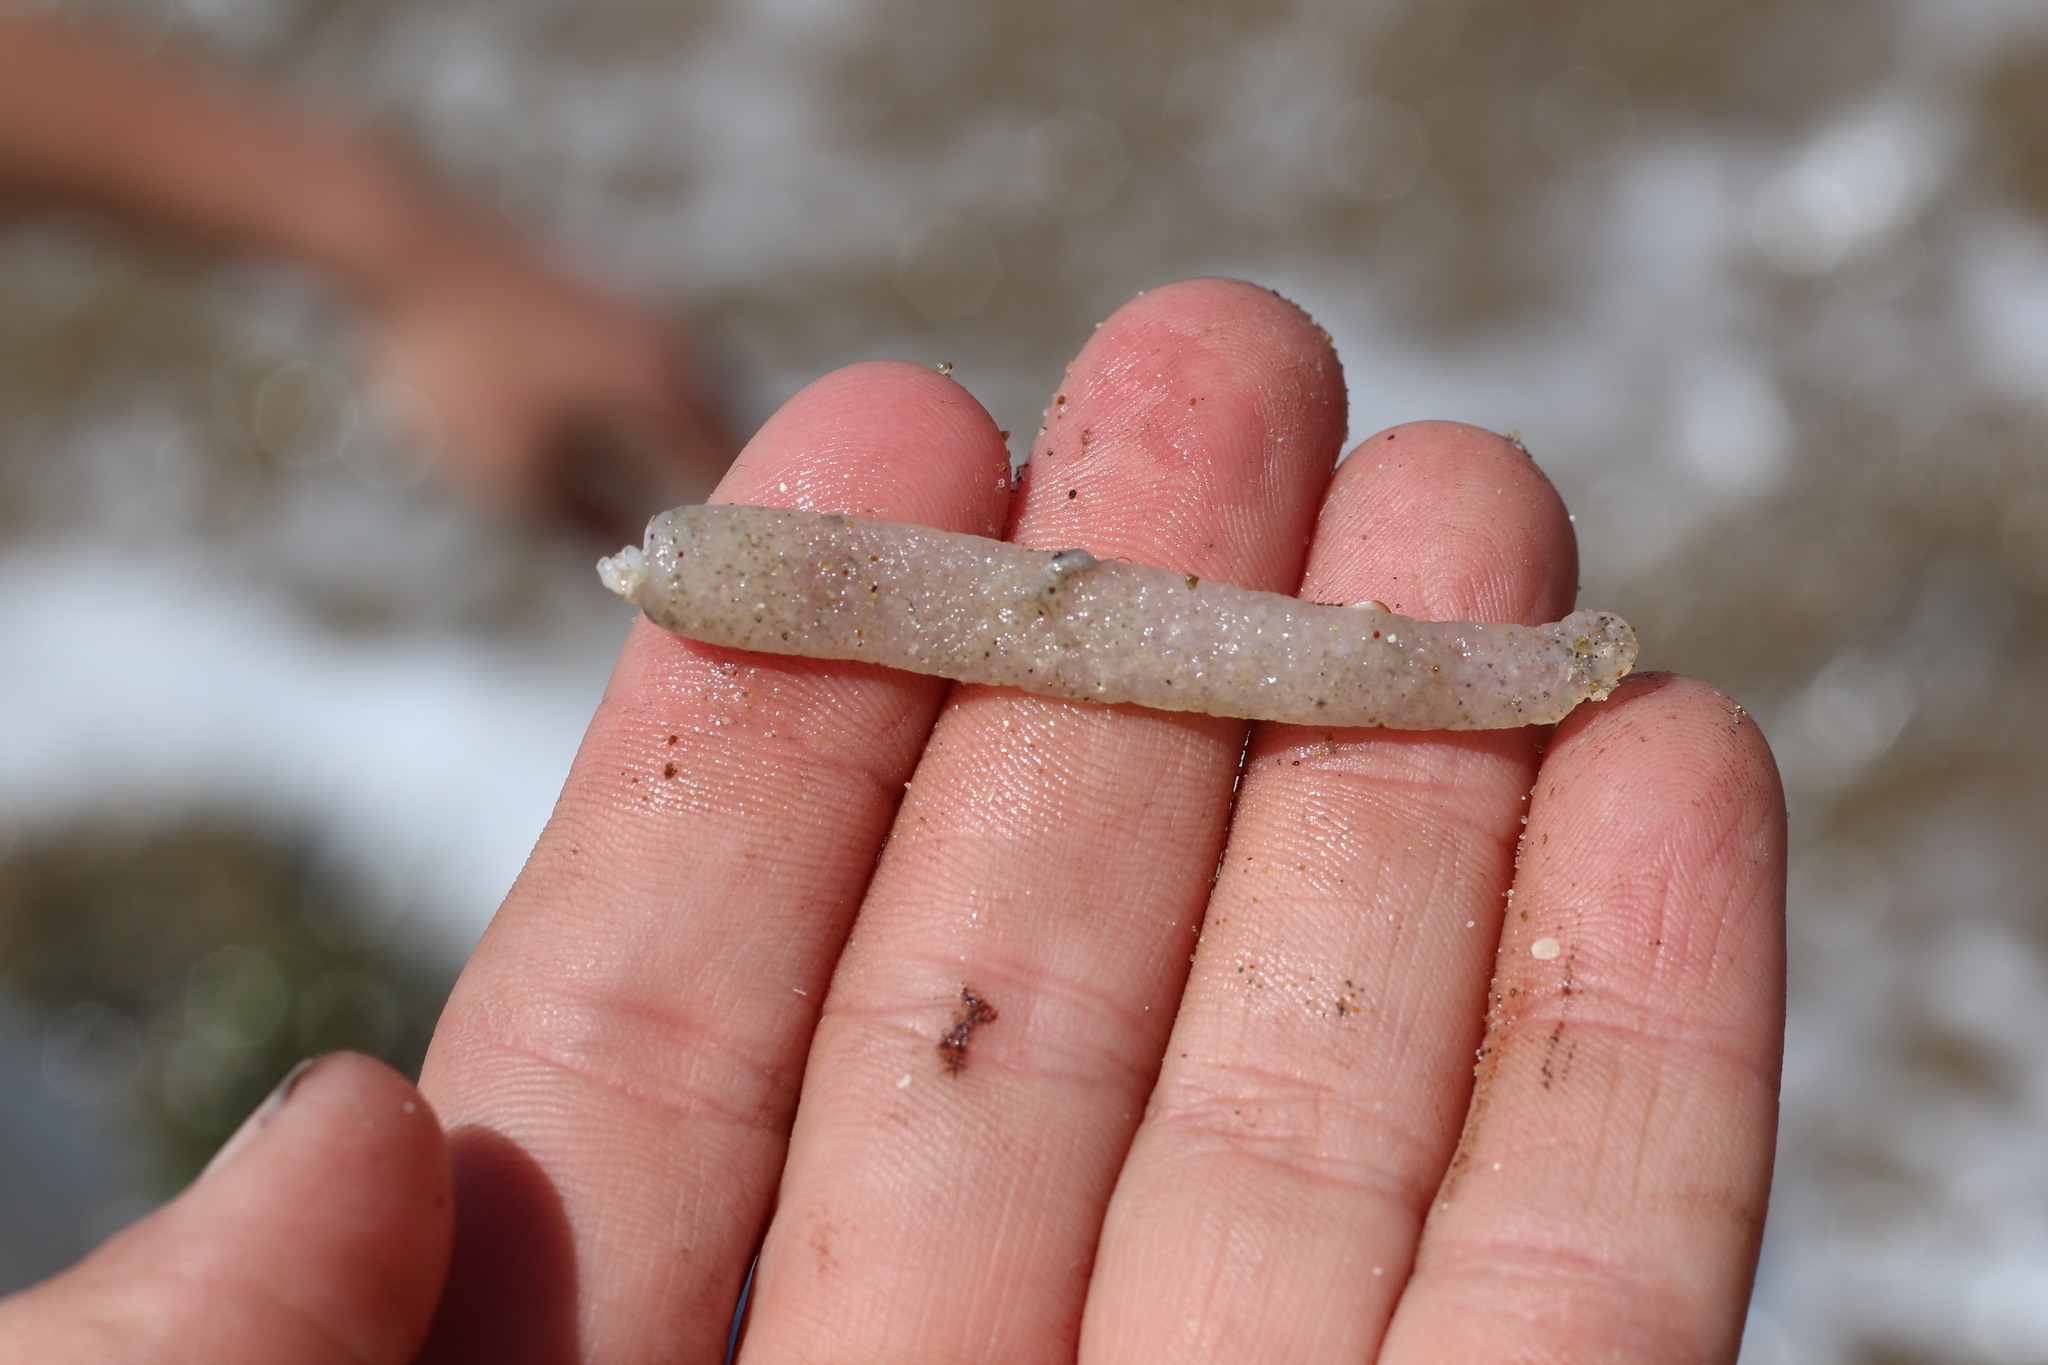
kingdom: Animalia
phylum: Chordata
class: Thaliacea
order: Pyrosomatida
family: Pyrosomatidae
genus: Pyrosoma
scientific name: Pyrosoma atlanticum
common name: Atlantic pyrosomes
